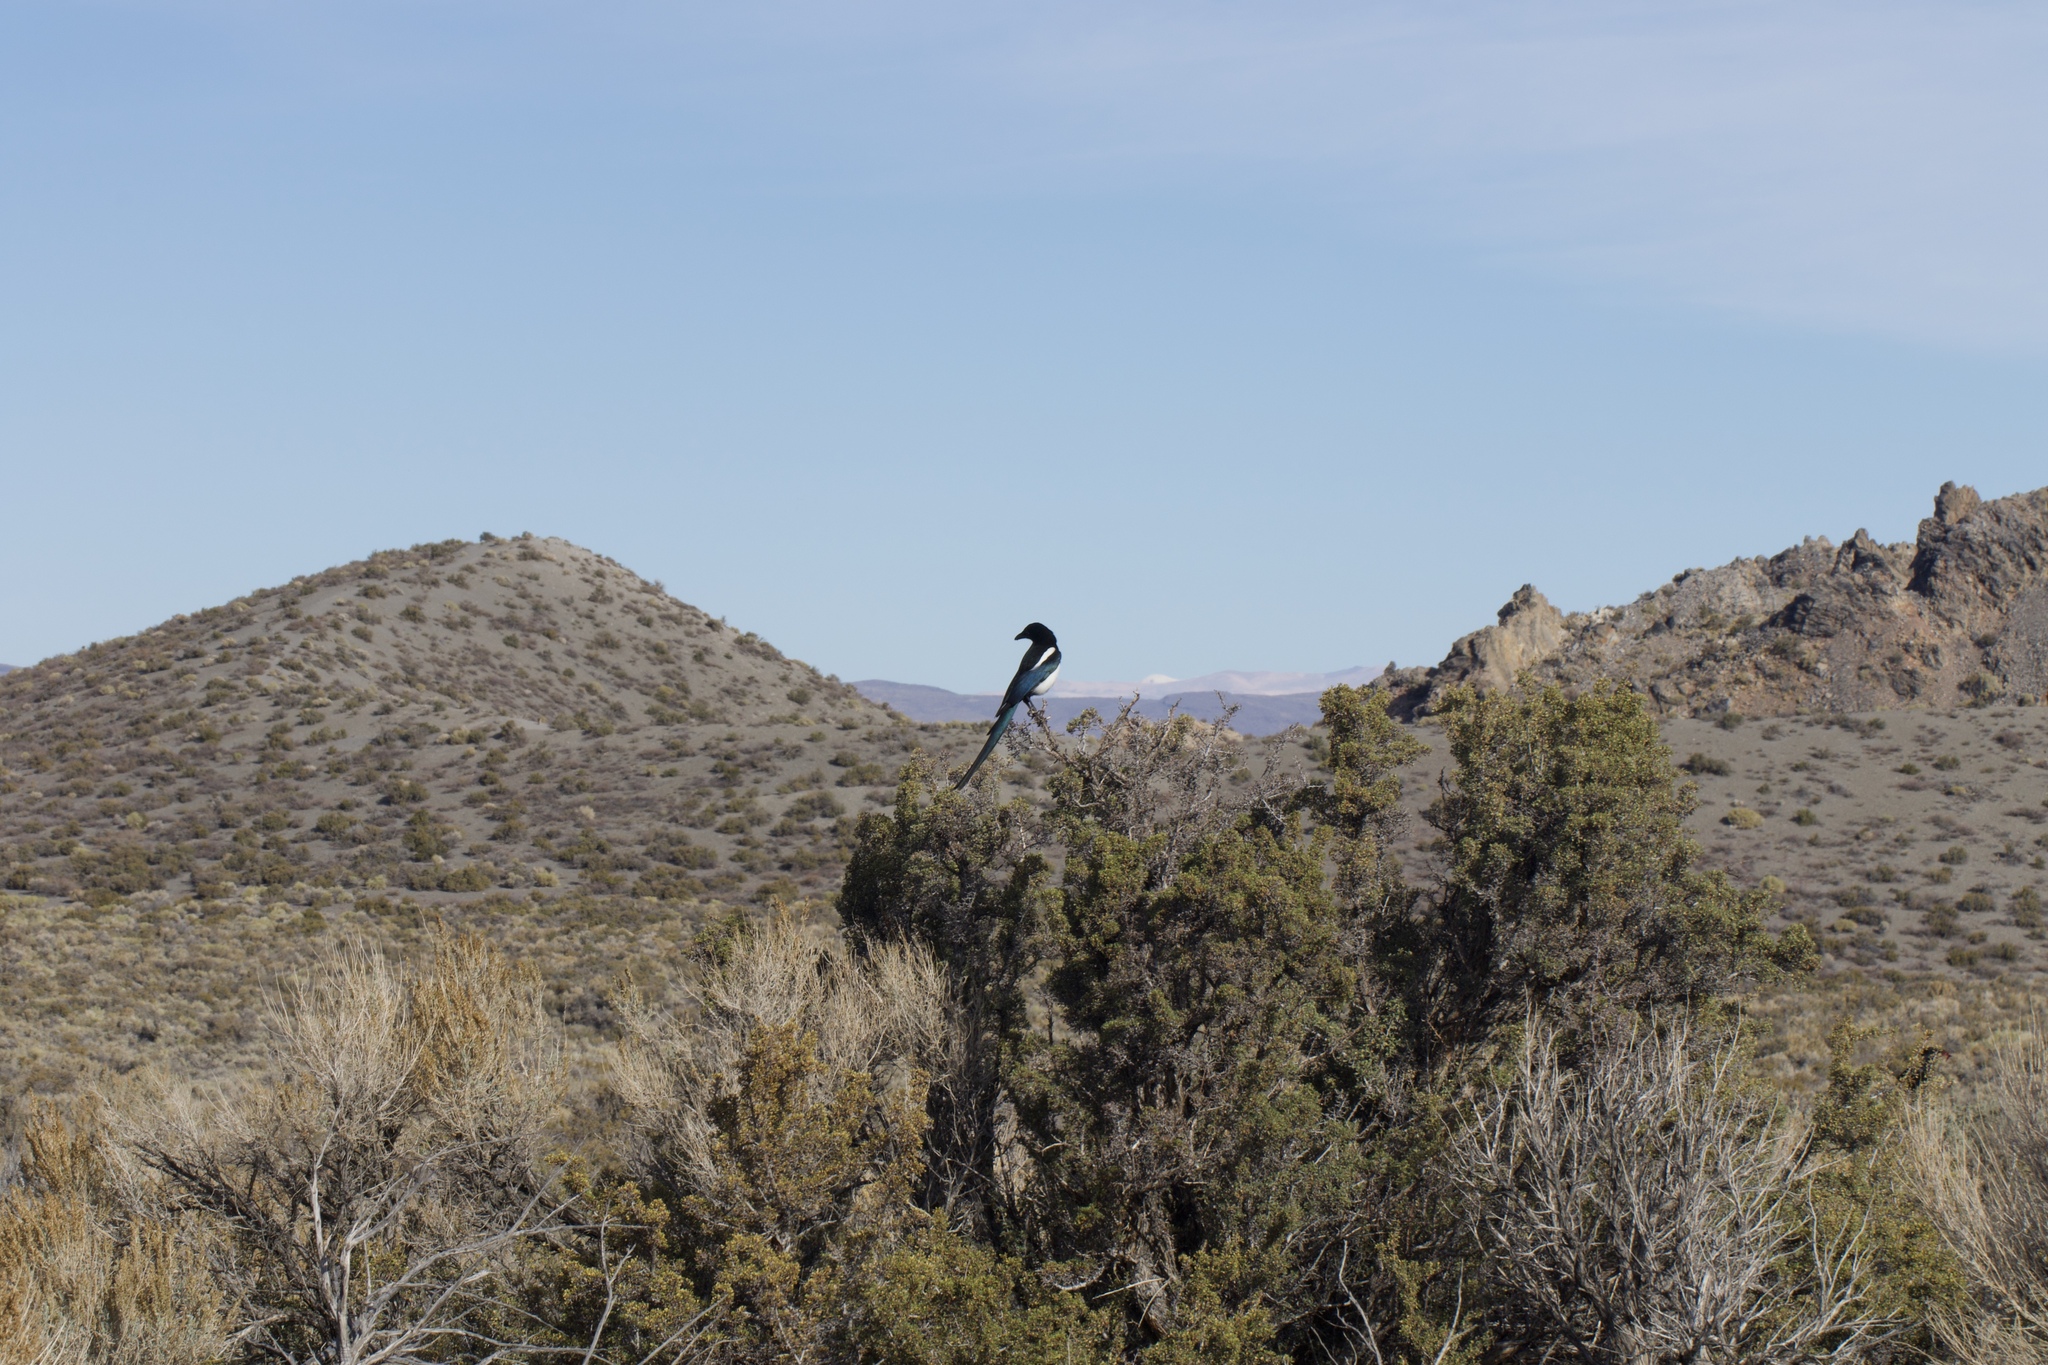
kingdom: Animalia
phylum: Chordata
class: Aves
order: Passeriformes
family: Corvidae
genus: Pica
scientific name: Pica hudsonia
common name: Black-billed magpie
